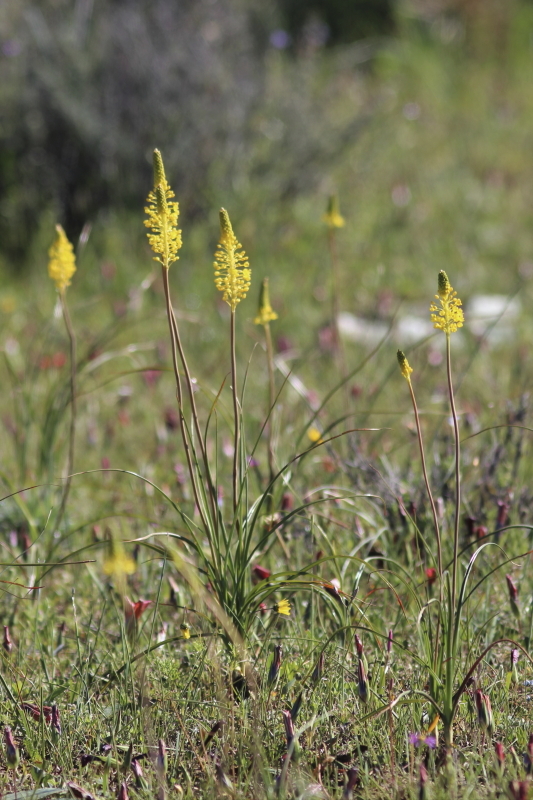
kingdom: Plantae
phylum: Tracheophyta
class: Liliopsida
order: Asparagales
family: Asphodelaceae
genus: Bulbinella
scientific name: Bulbinella nutans
